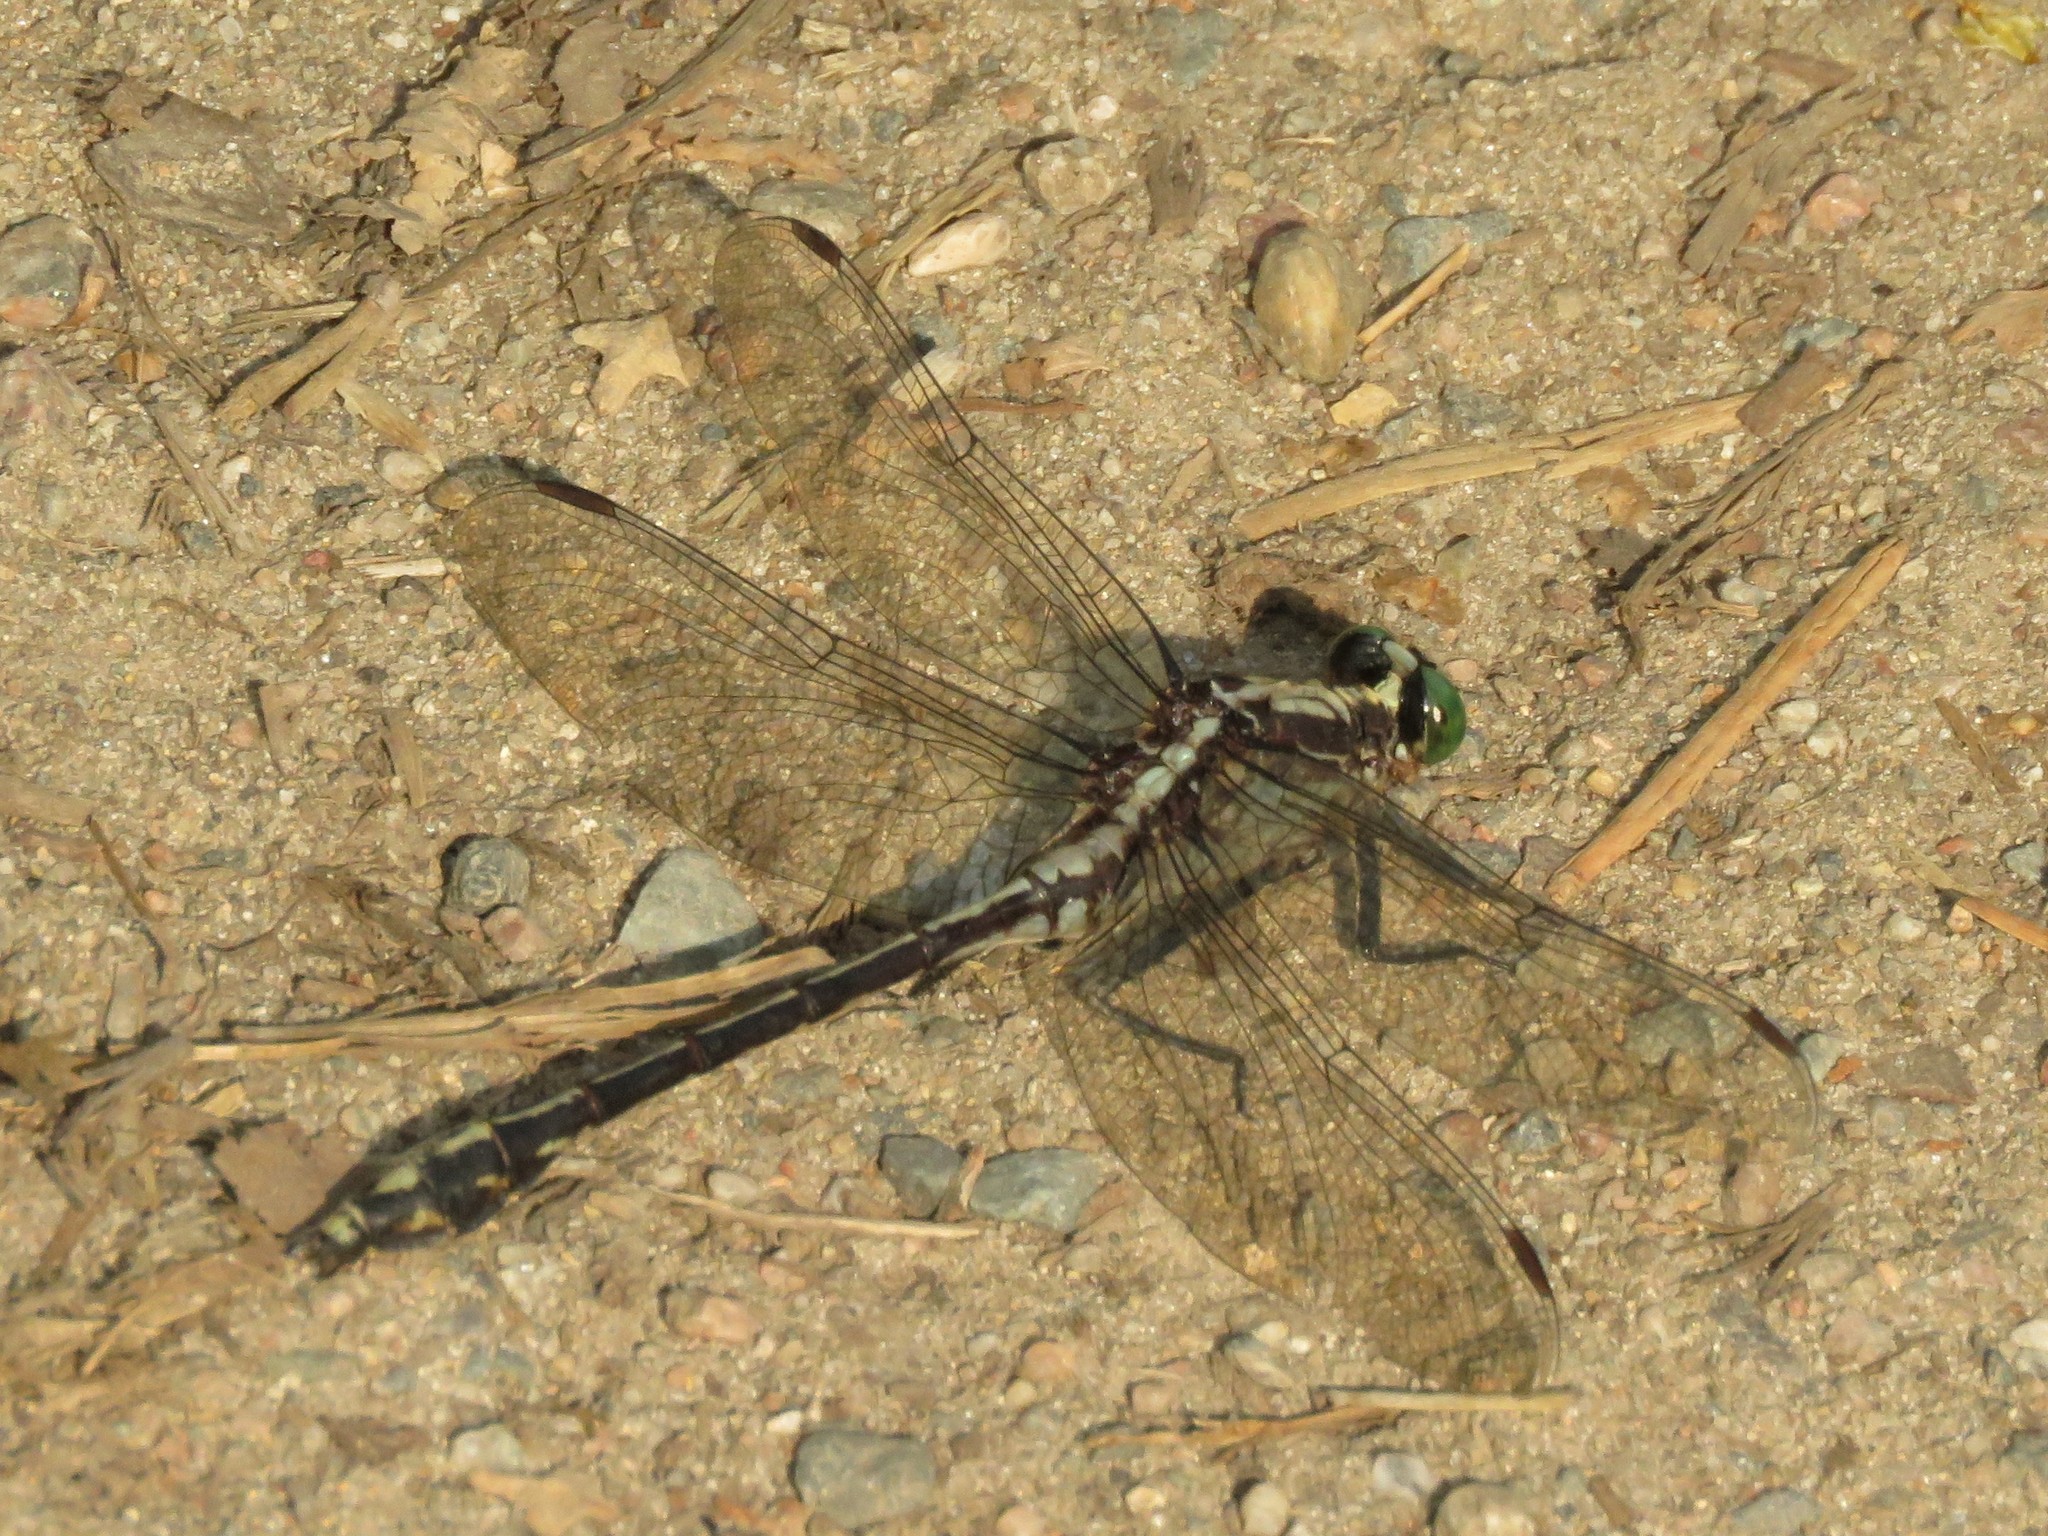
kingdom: Animalia
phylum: Arthropoda
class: Insecta
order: Odonata
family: Gomphidae
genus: Dromogomphus
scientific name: Dromogomphus spinosus
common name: Black-shouldered spinyleg
